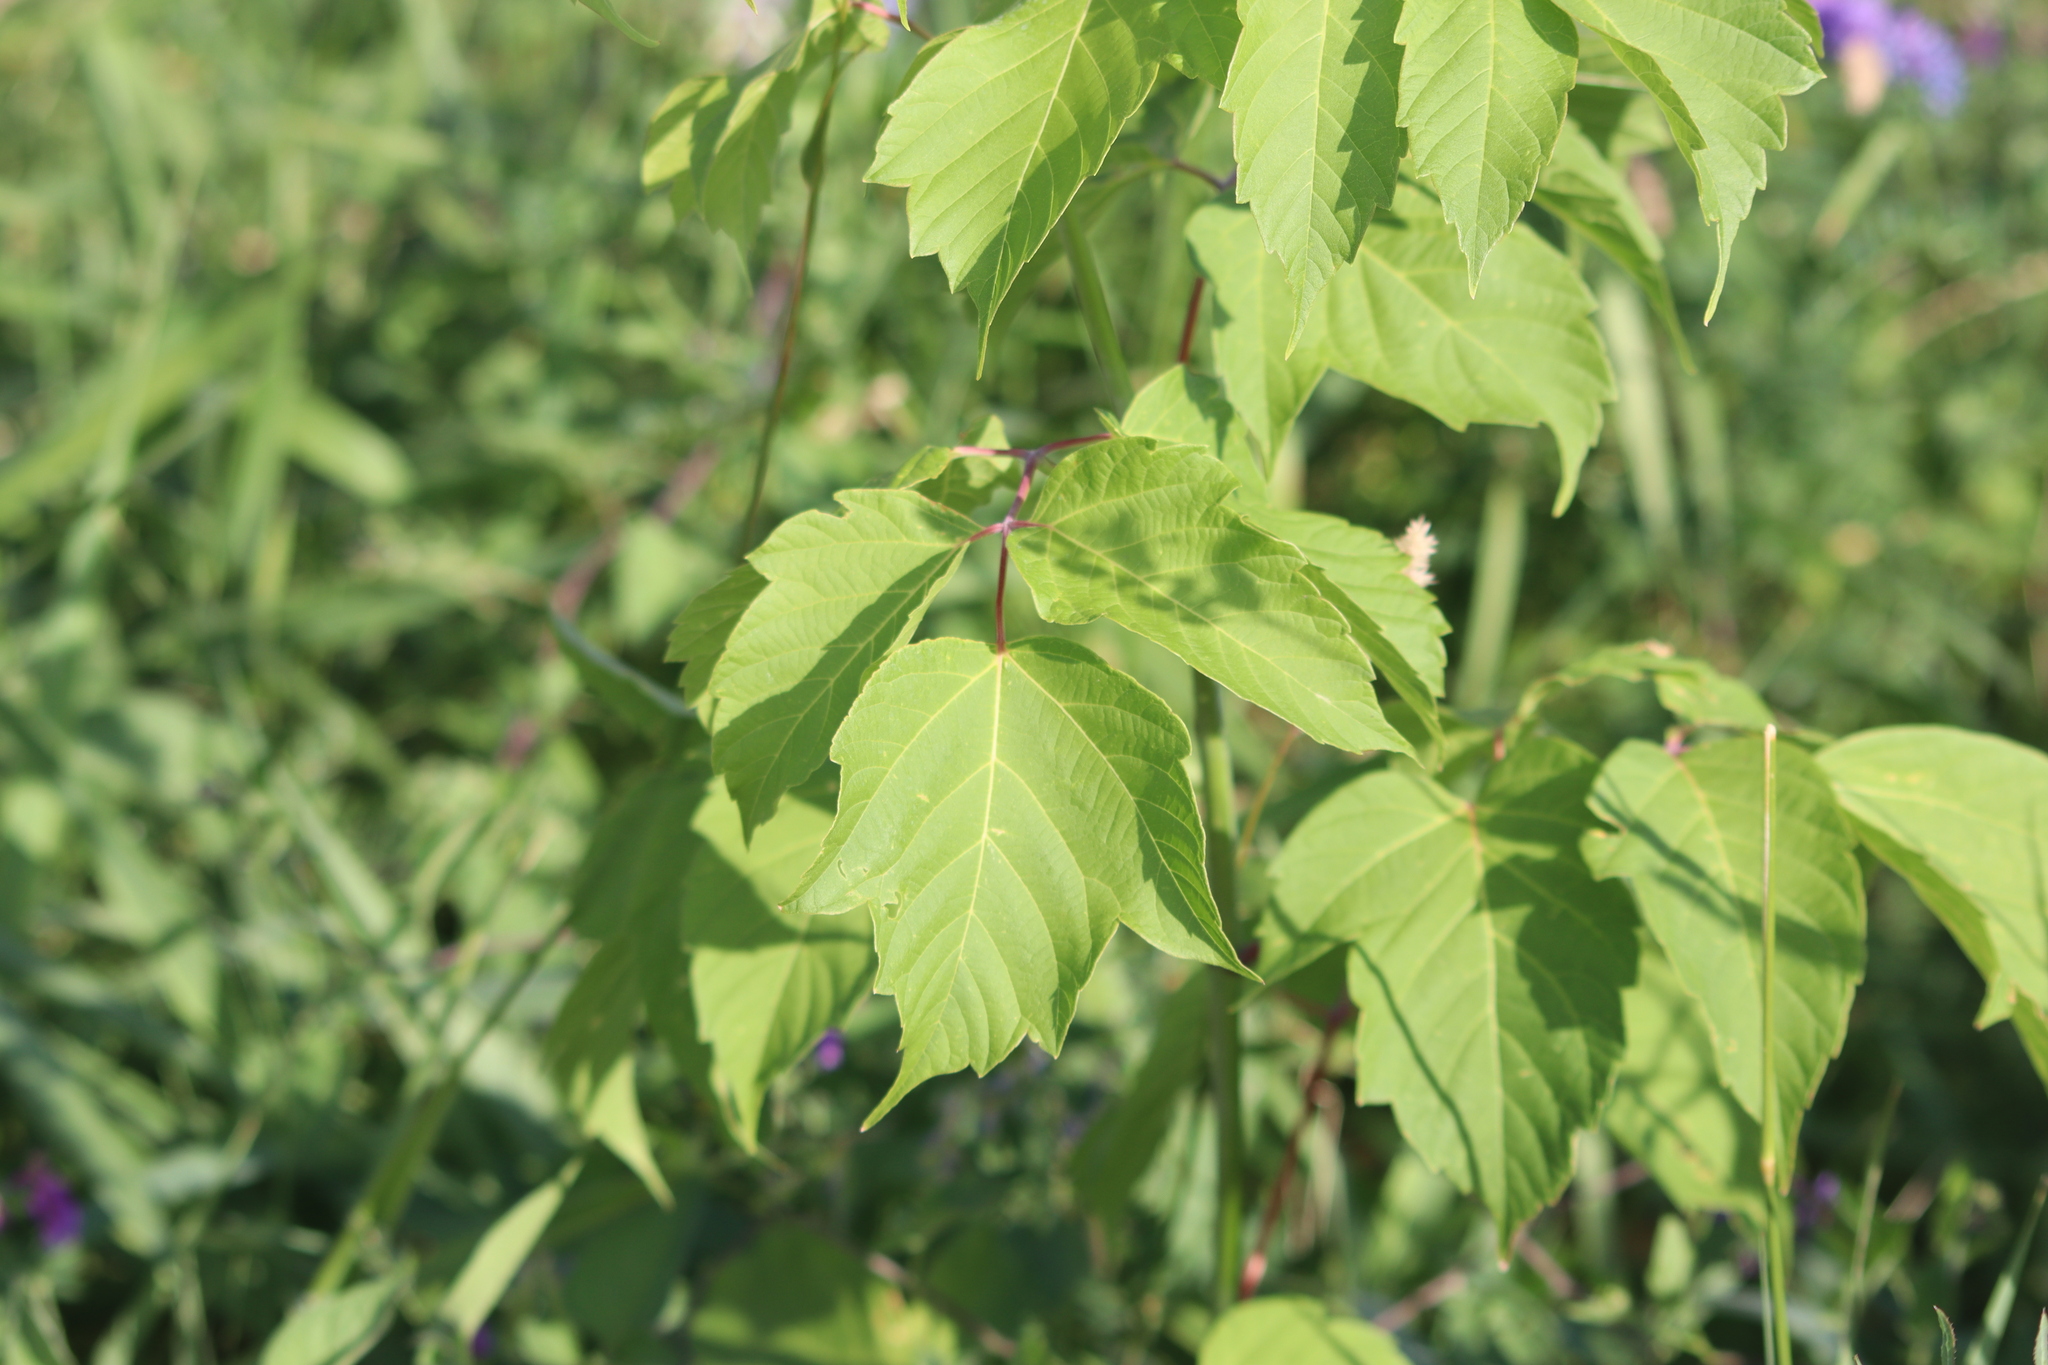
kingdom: Plantae
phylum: Tracheophyta
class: Magnoliopsida
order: Sapindales
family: Sapindaceae
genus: Acer
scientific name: Acer negundo
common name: Ashleaf maple
